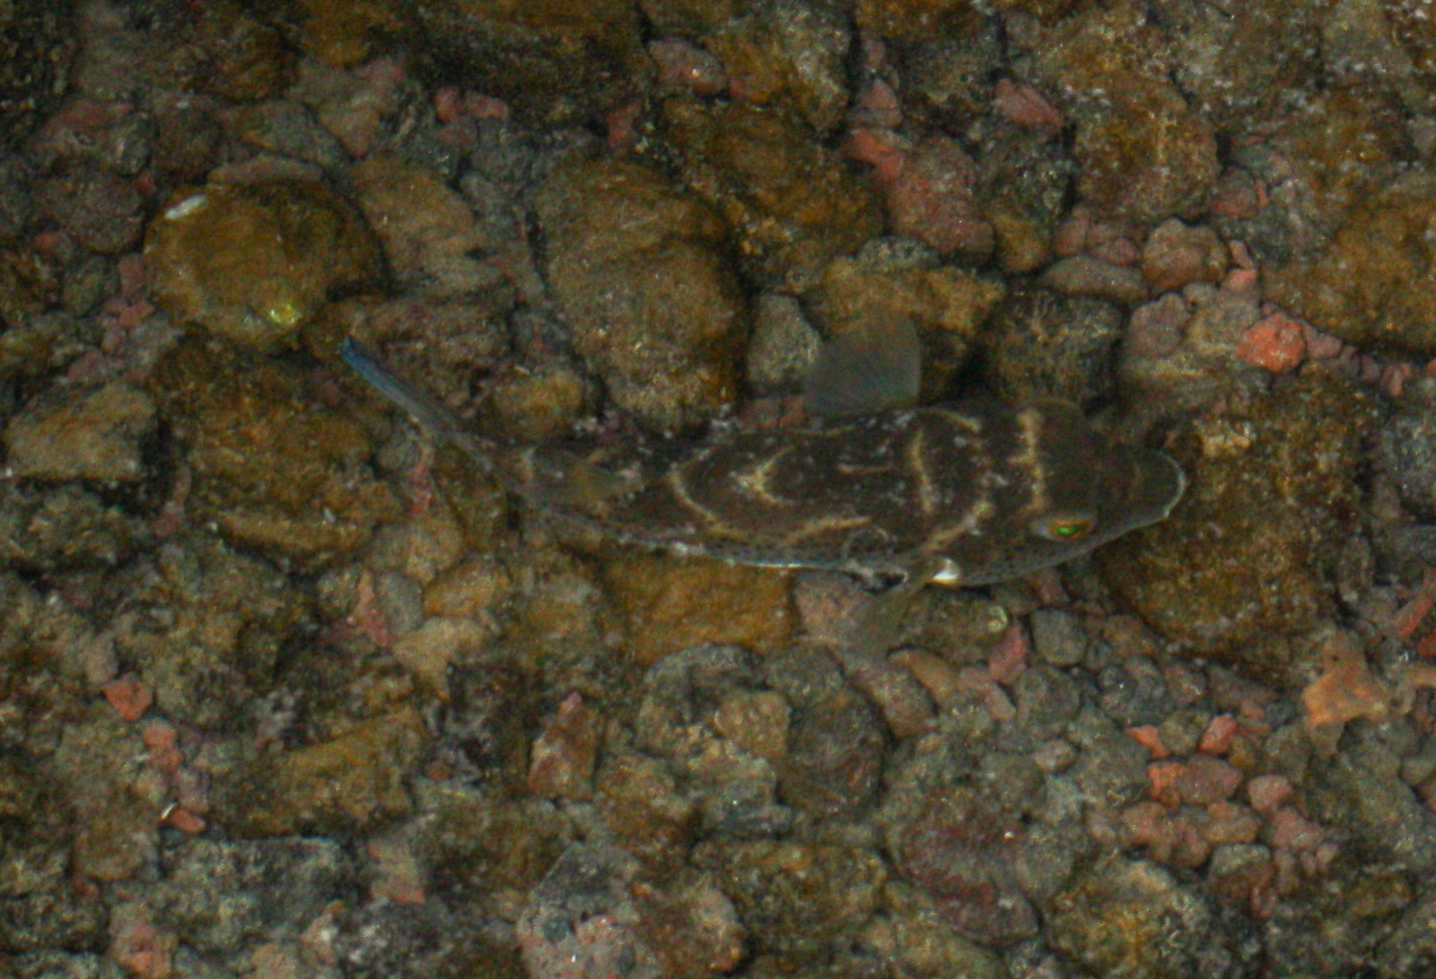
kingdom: Animalia
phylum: Chordata
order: Tetraodontiformes
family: Tetraodontidae
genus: Sphoeroides
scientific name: Sphoeroides annulatus
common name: Bullseye puffer
